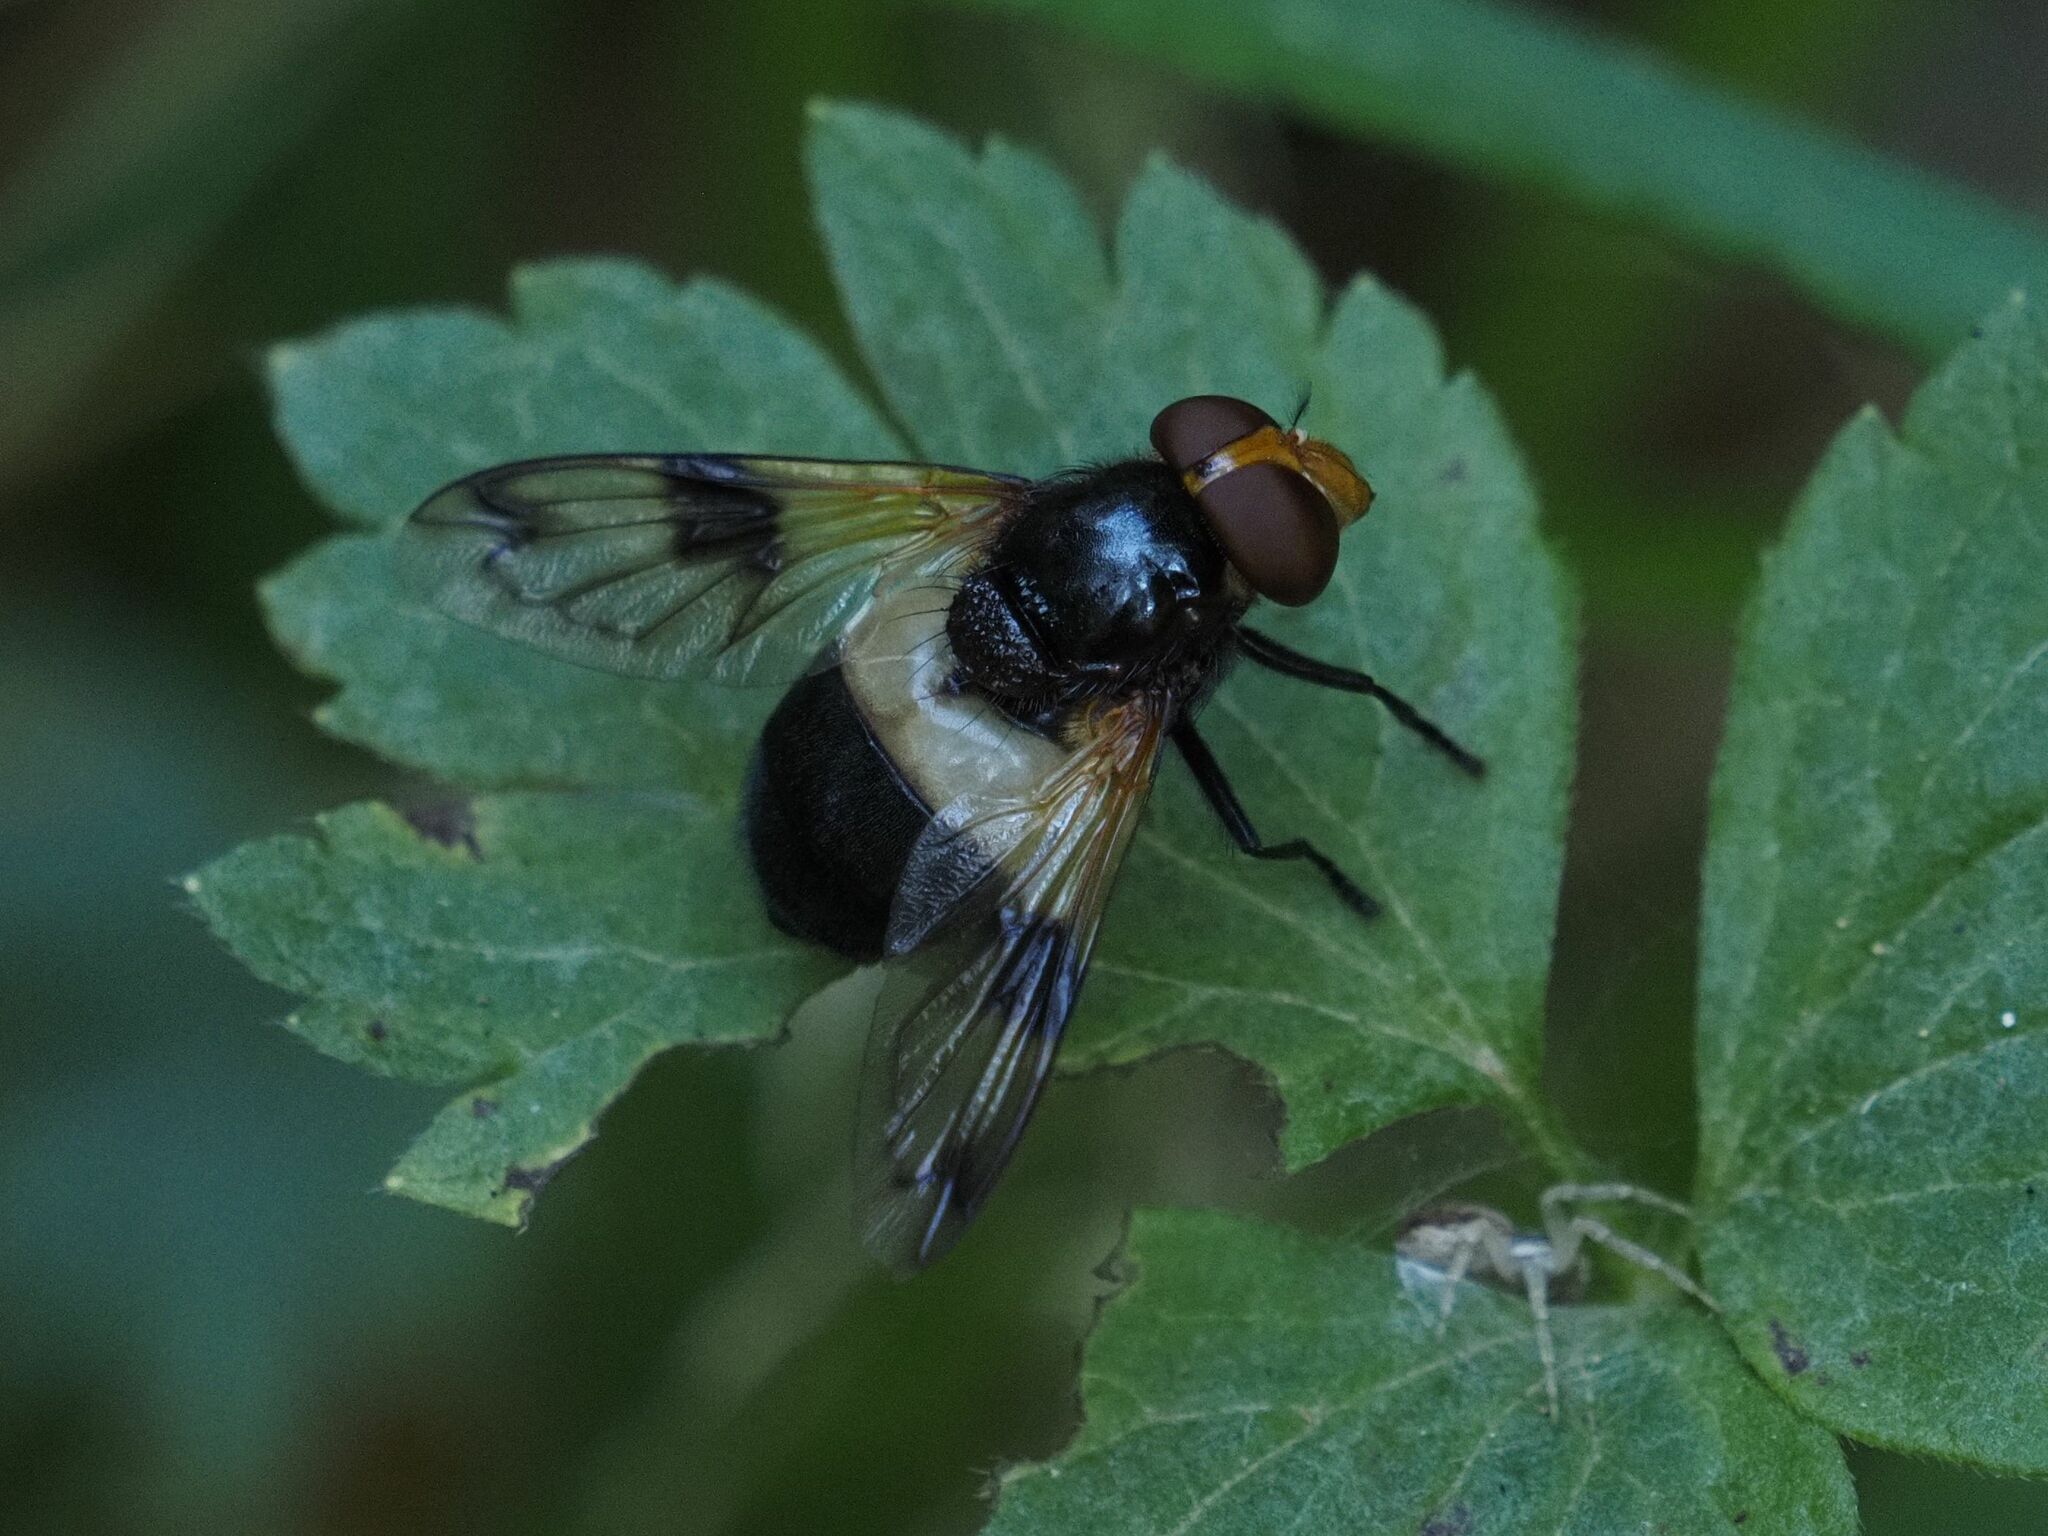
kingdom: Animalia
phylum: Arthropoda
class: Insecta
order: Diptera
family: Syrphidae
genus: Volucella
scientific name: Volucella pellucens
